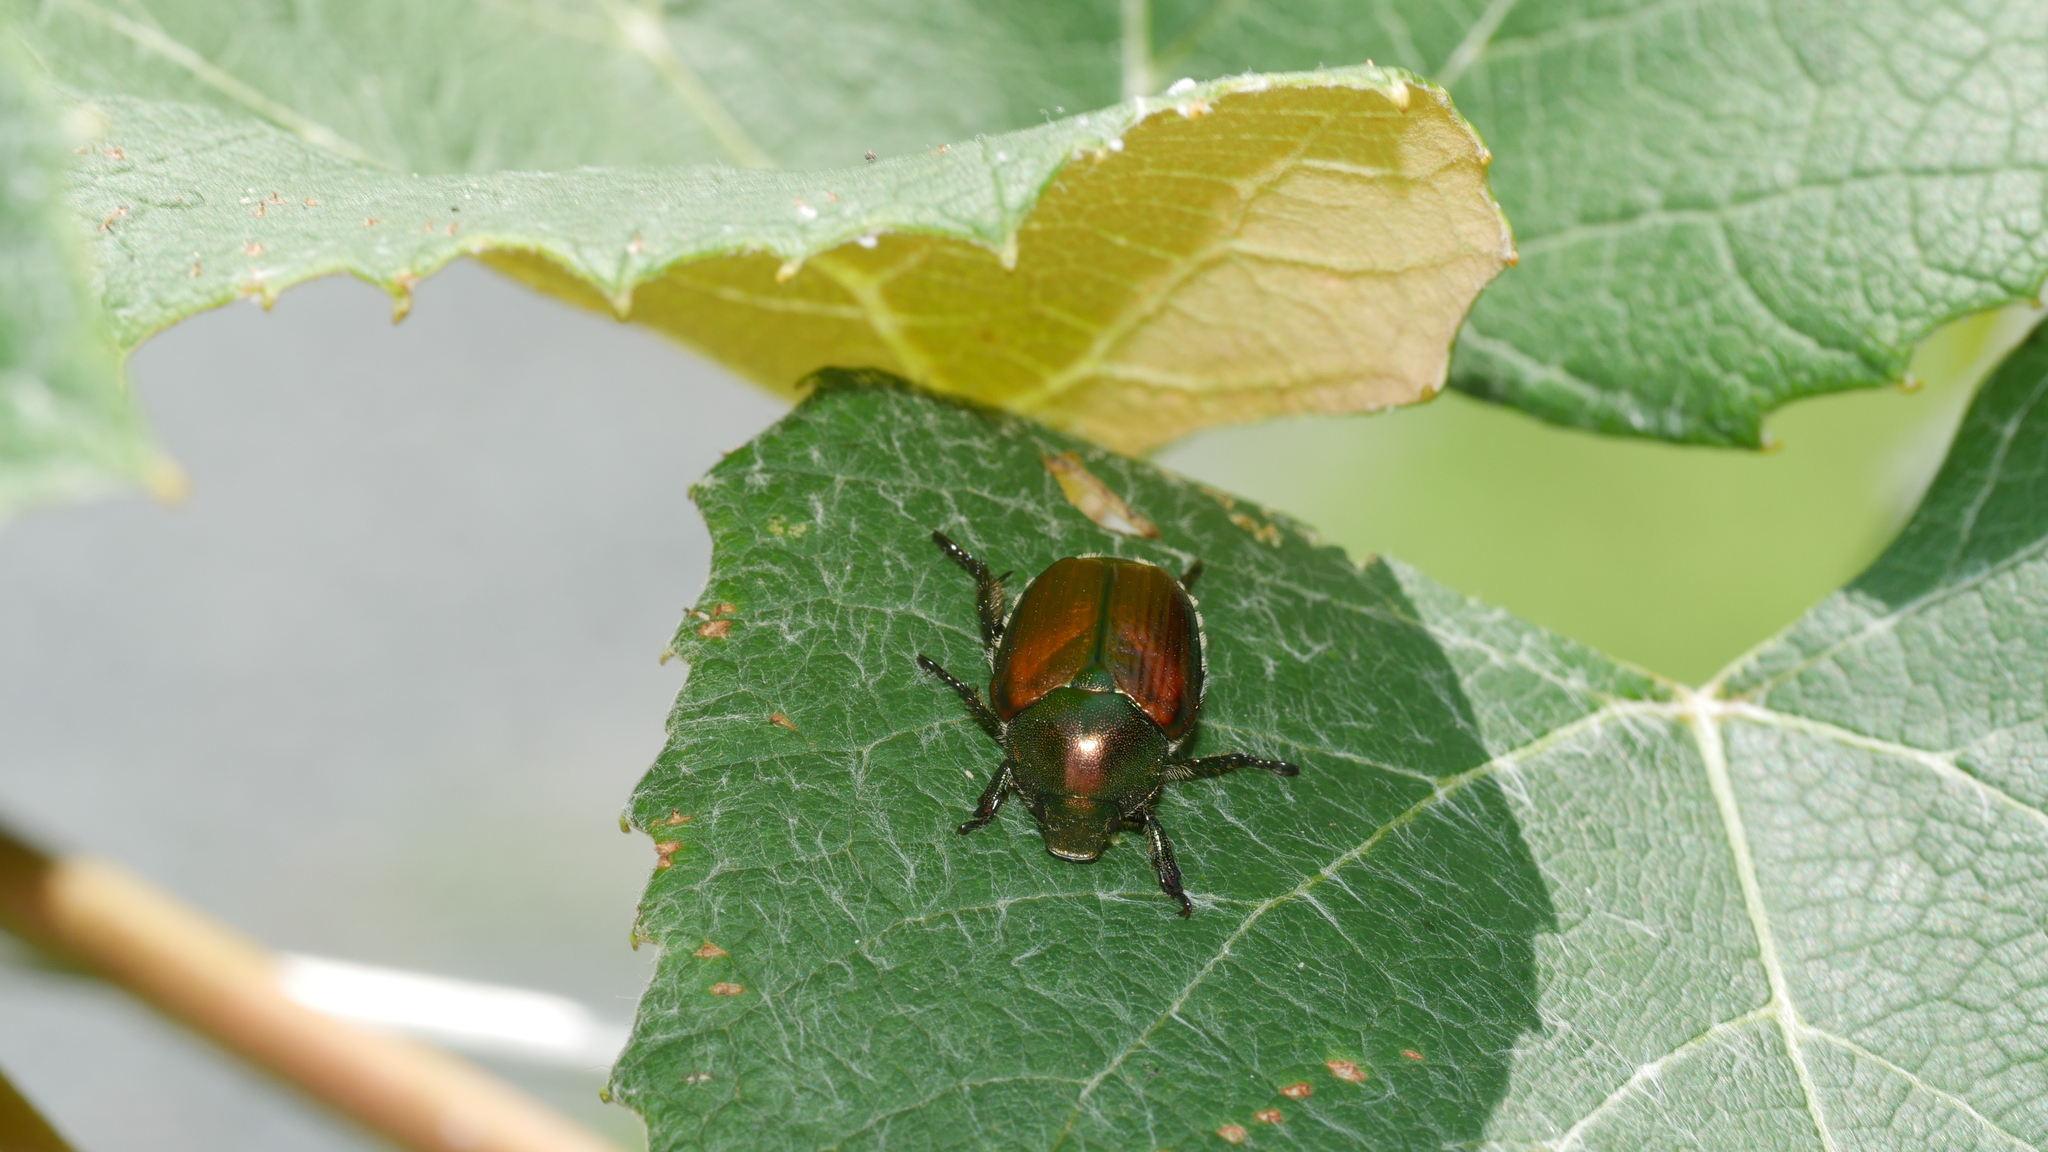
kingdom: Animalia
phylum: Arthropoda
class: Insecta
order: Coleoptera
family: Scarabaeidae
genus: Popillia
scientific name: Popillia japonica
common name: Japanese beetle
